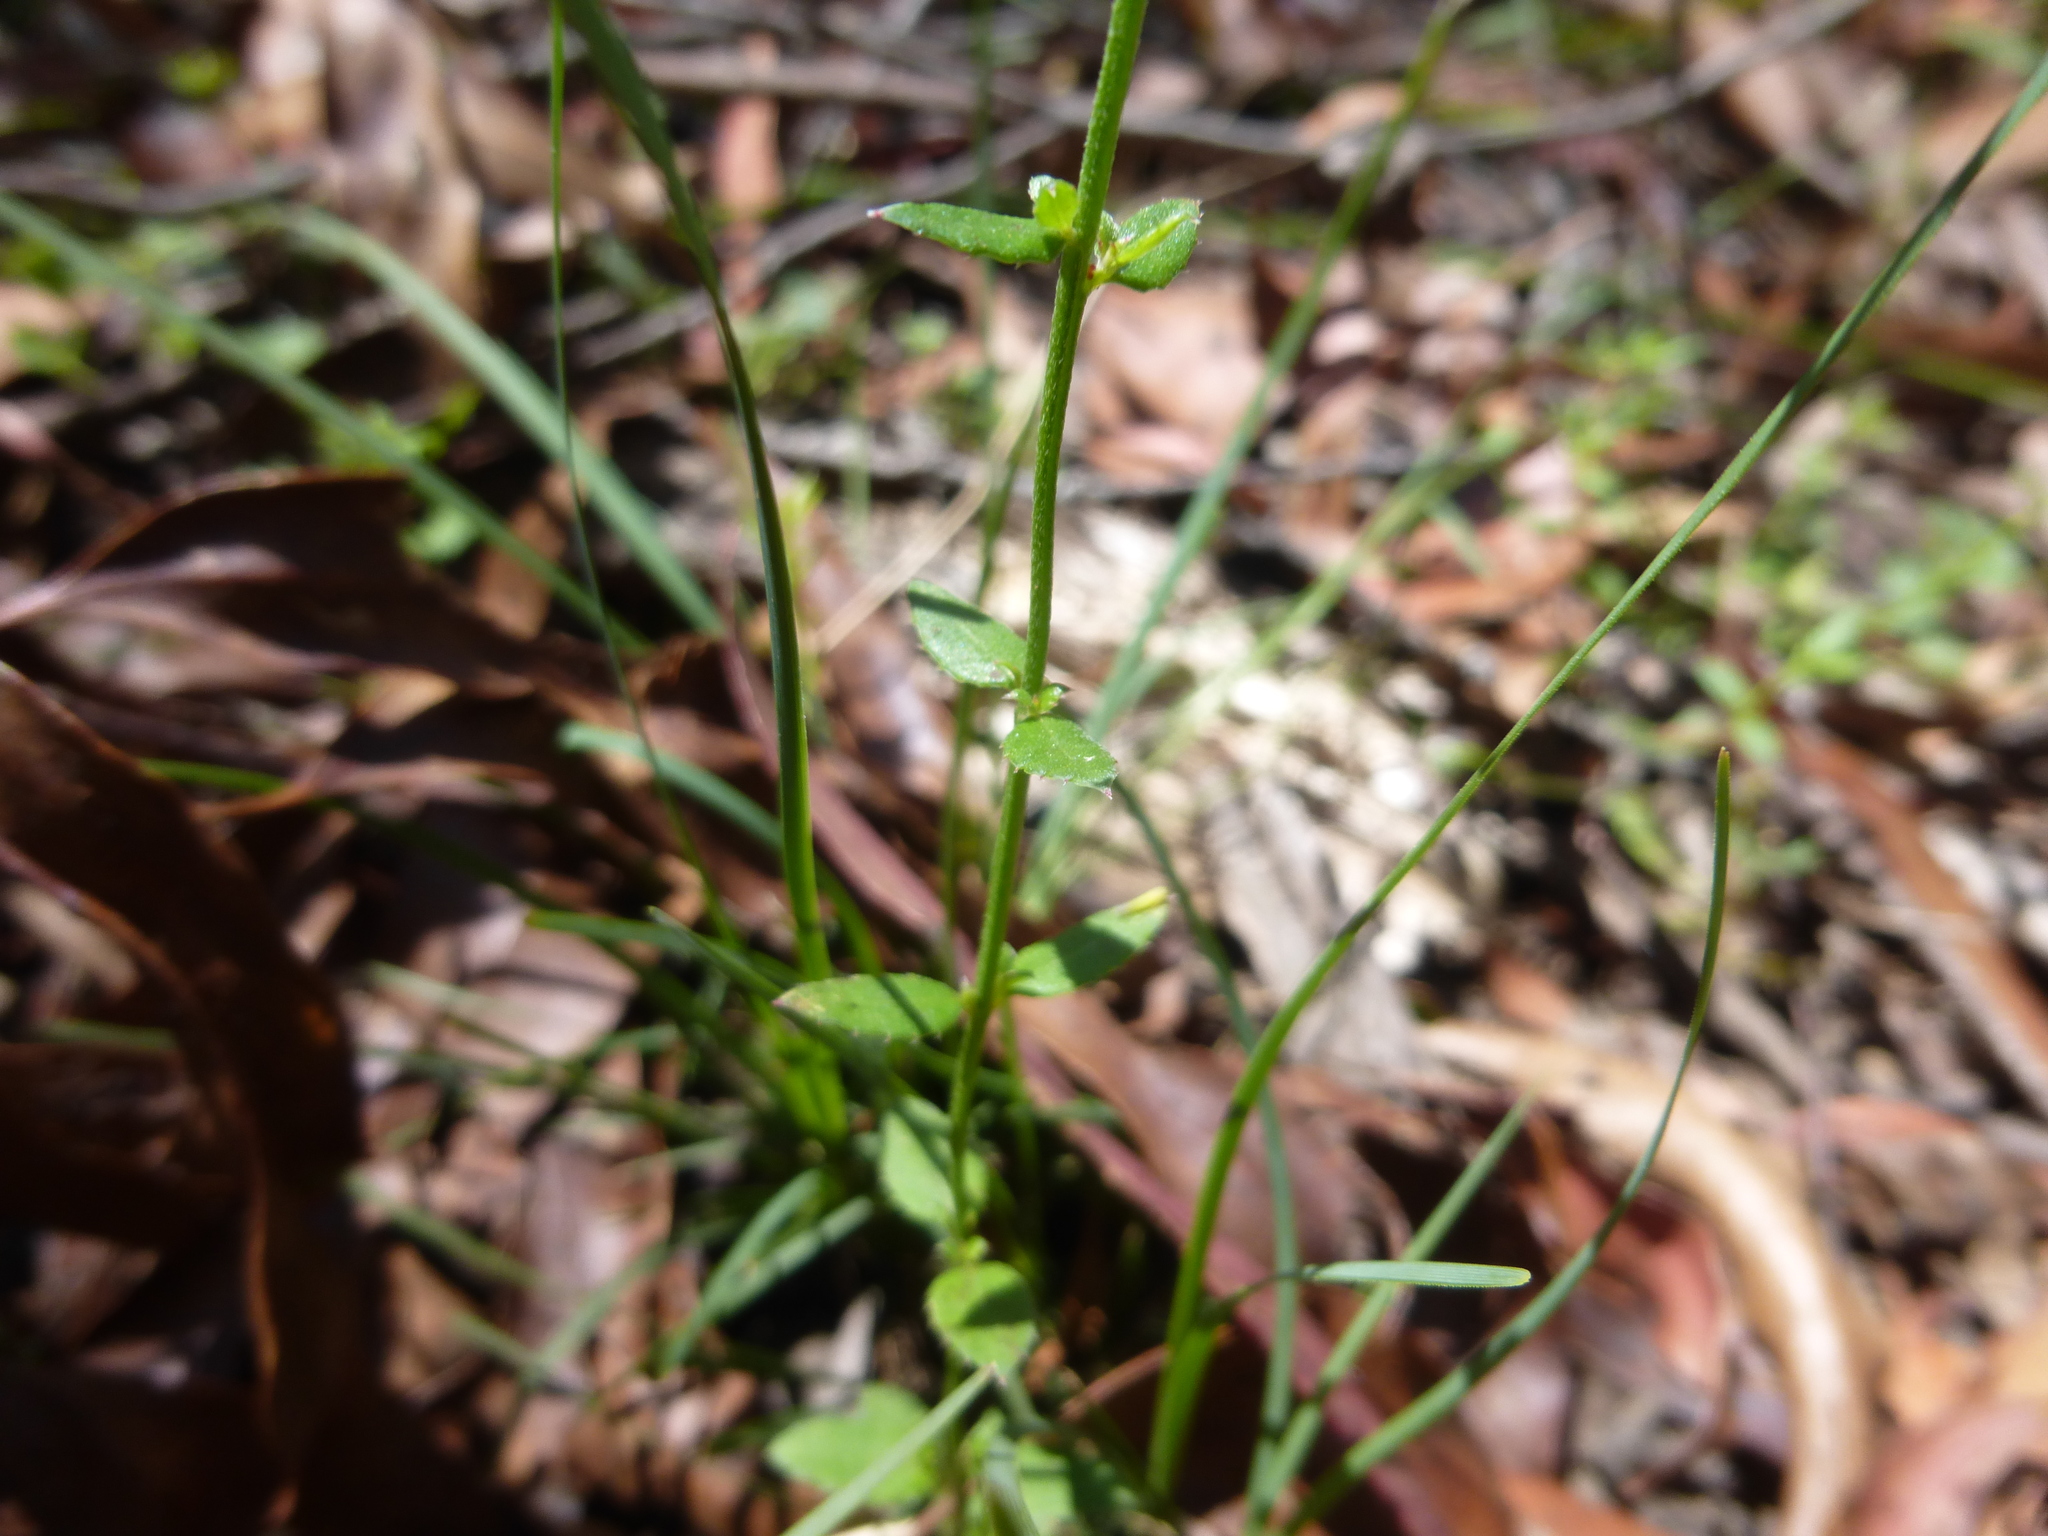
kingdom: Plantae
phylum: Tracheophyta
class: Magnoliopsida
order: Saxifragales
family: Haloragaceae
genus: Gonocarpus
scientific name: Gonocarpus tetragynus
